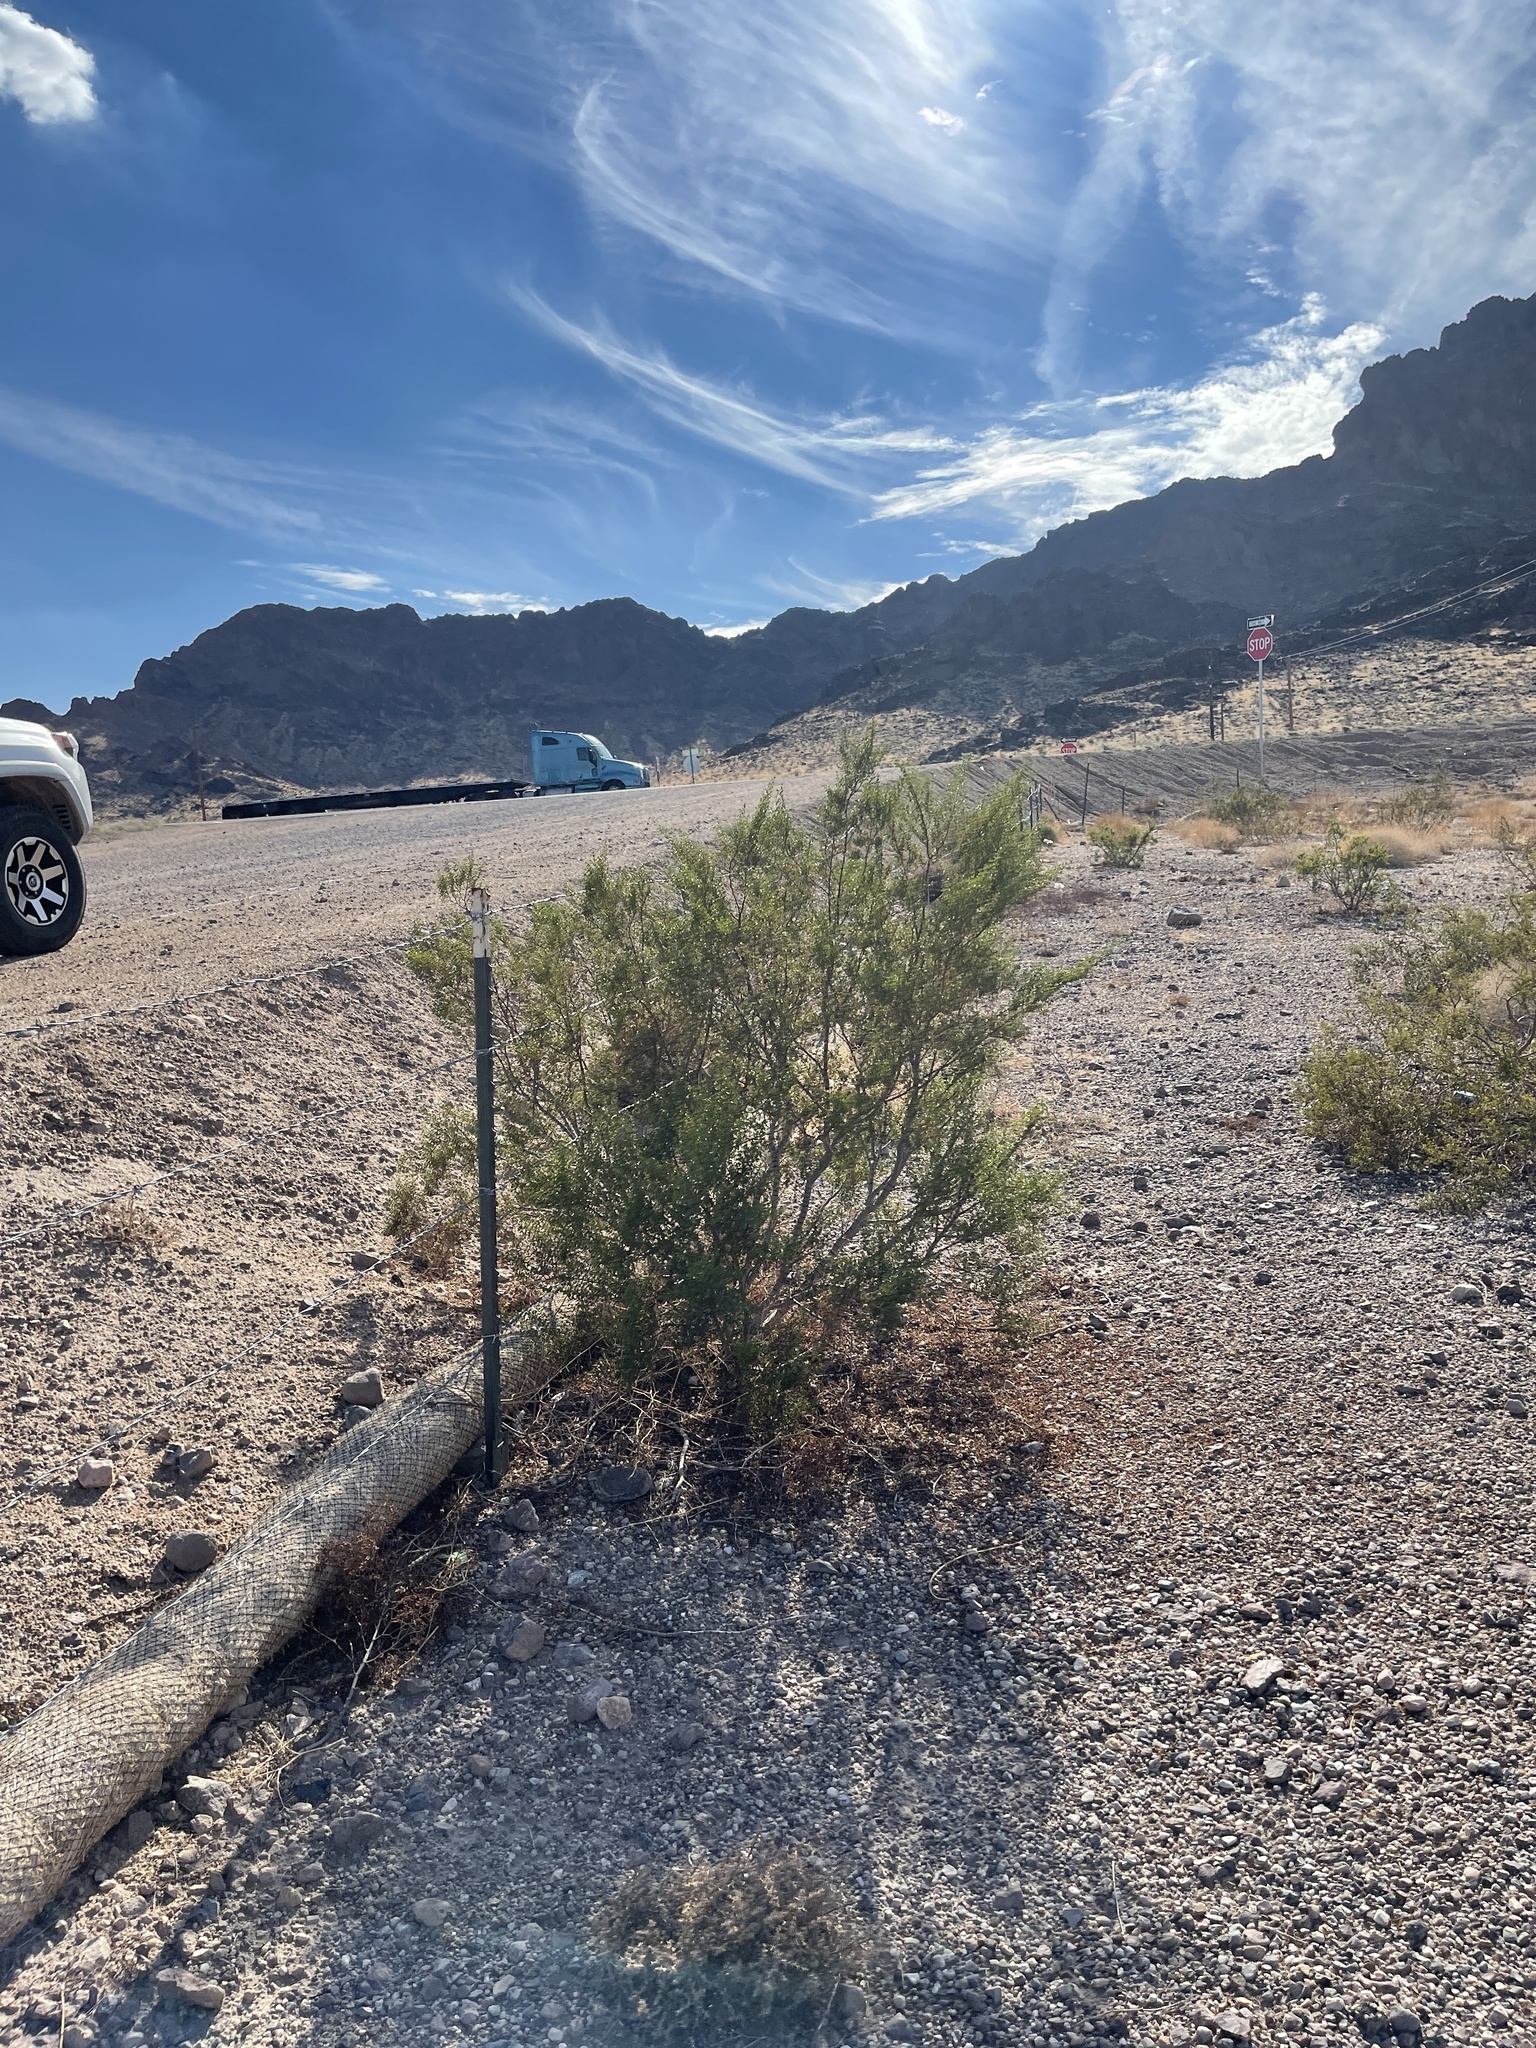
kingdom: Plantae
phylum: Tracheophyta
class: Magnoliopsida
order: Zygophyllales
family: Zygophyllaceae
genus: Larrea
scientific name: Larrea tridentata
